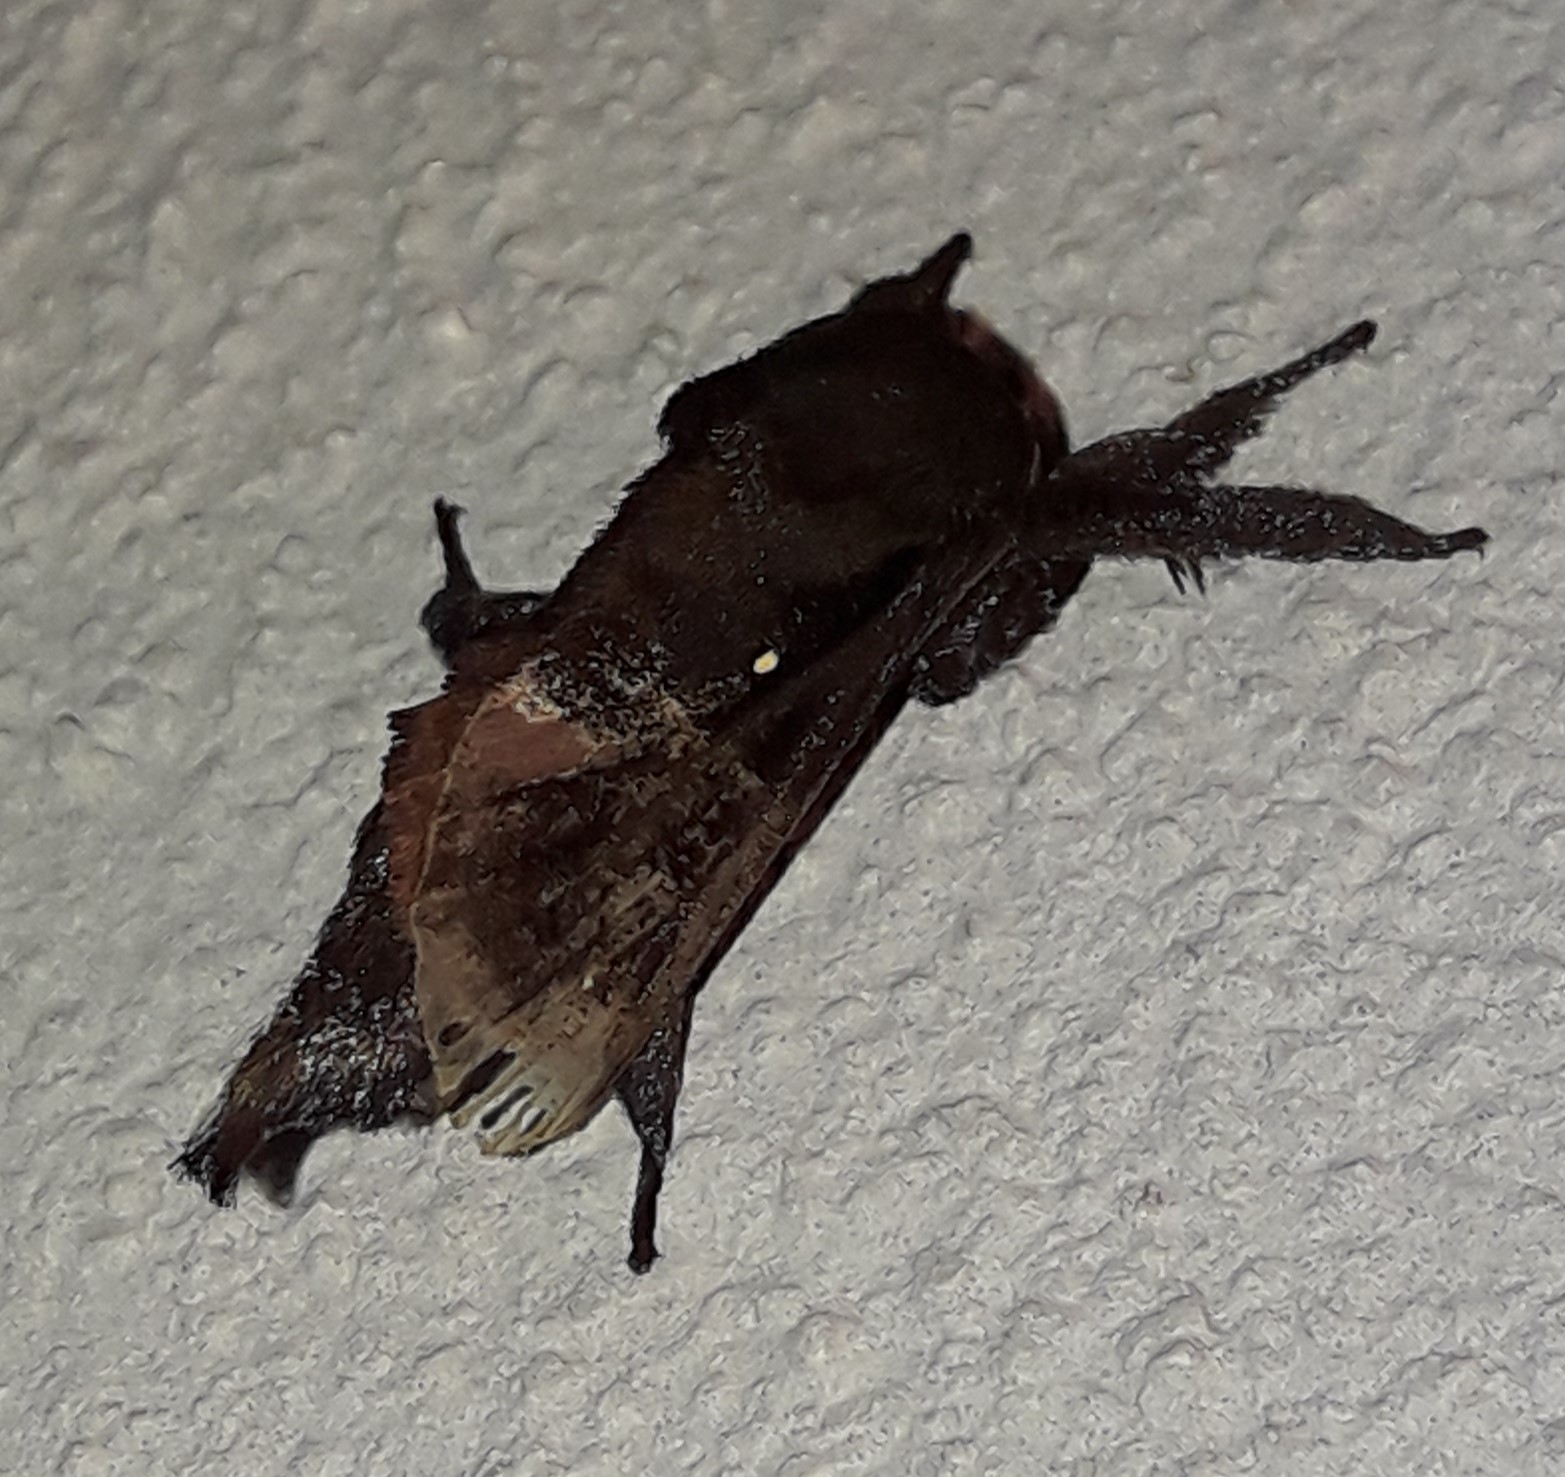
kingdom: Animalia
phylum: Arthropoda
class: Insecta
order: Lepidoptera
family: Limacodidae
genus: Sibine
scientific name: Sibine apicalis
